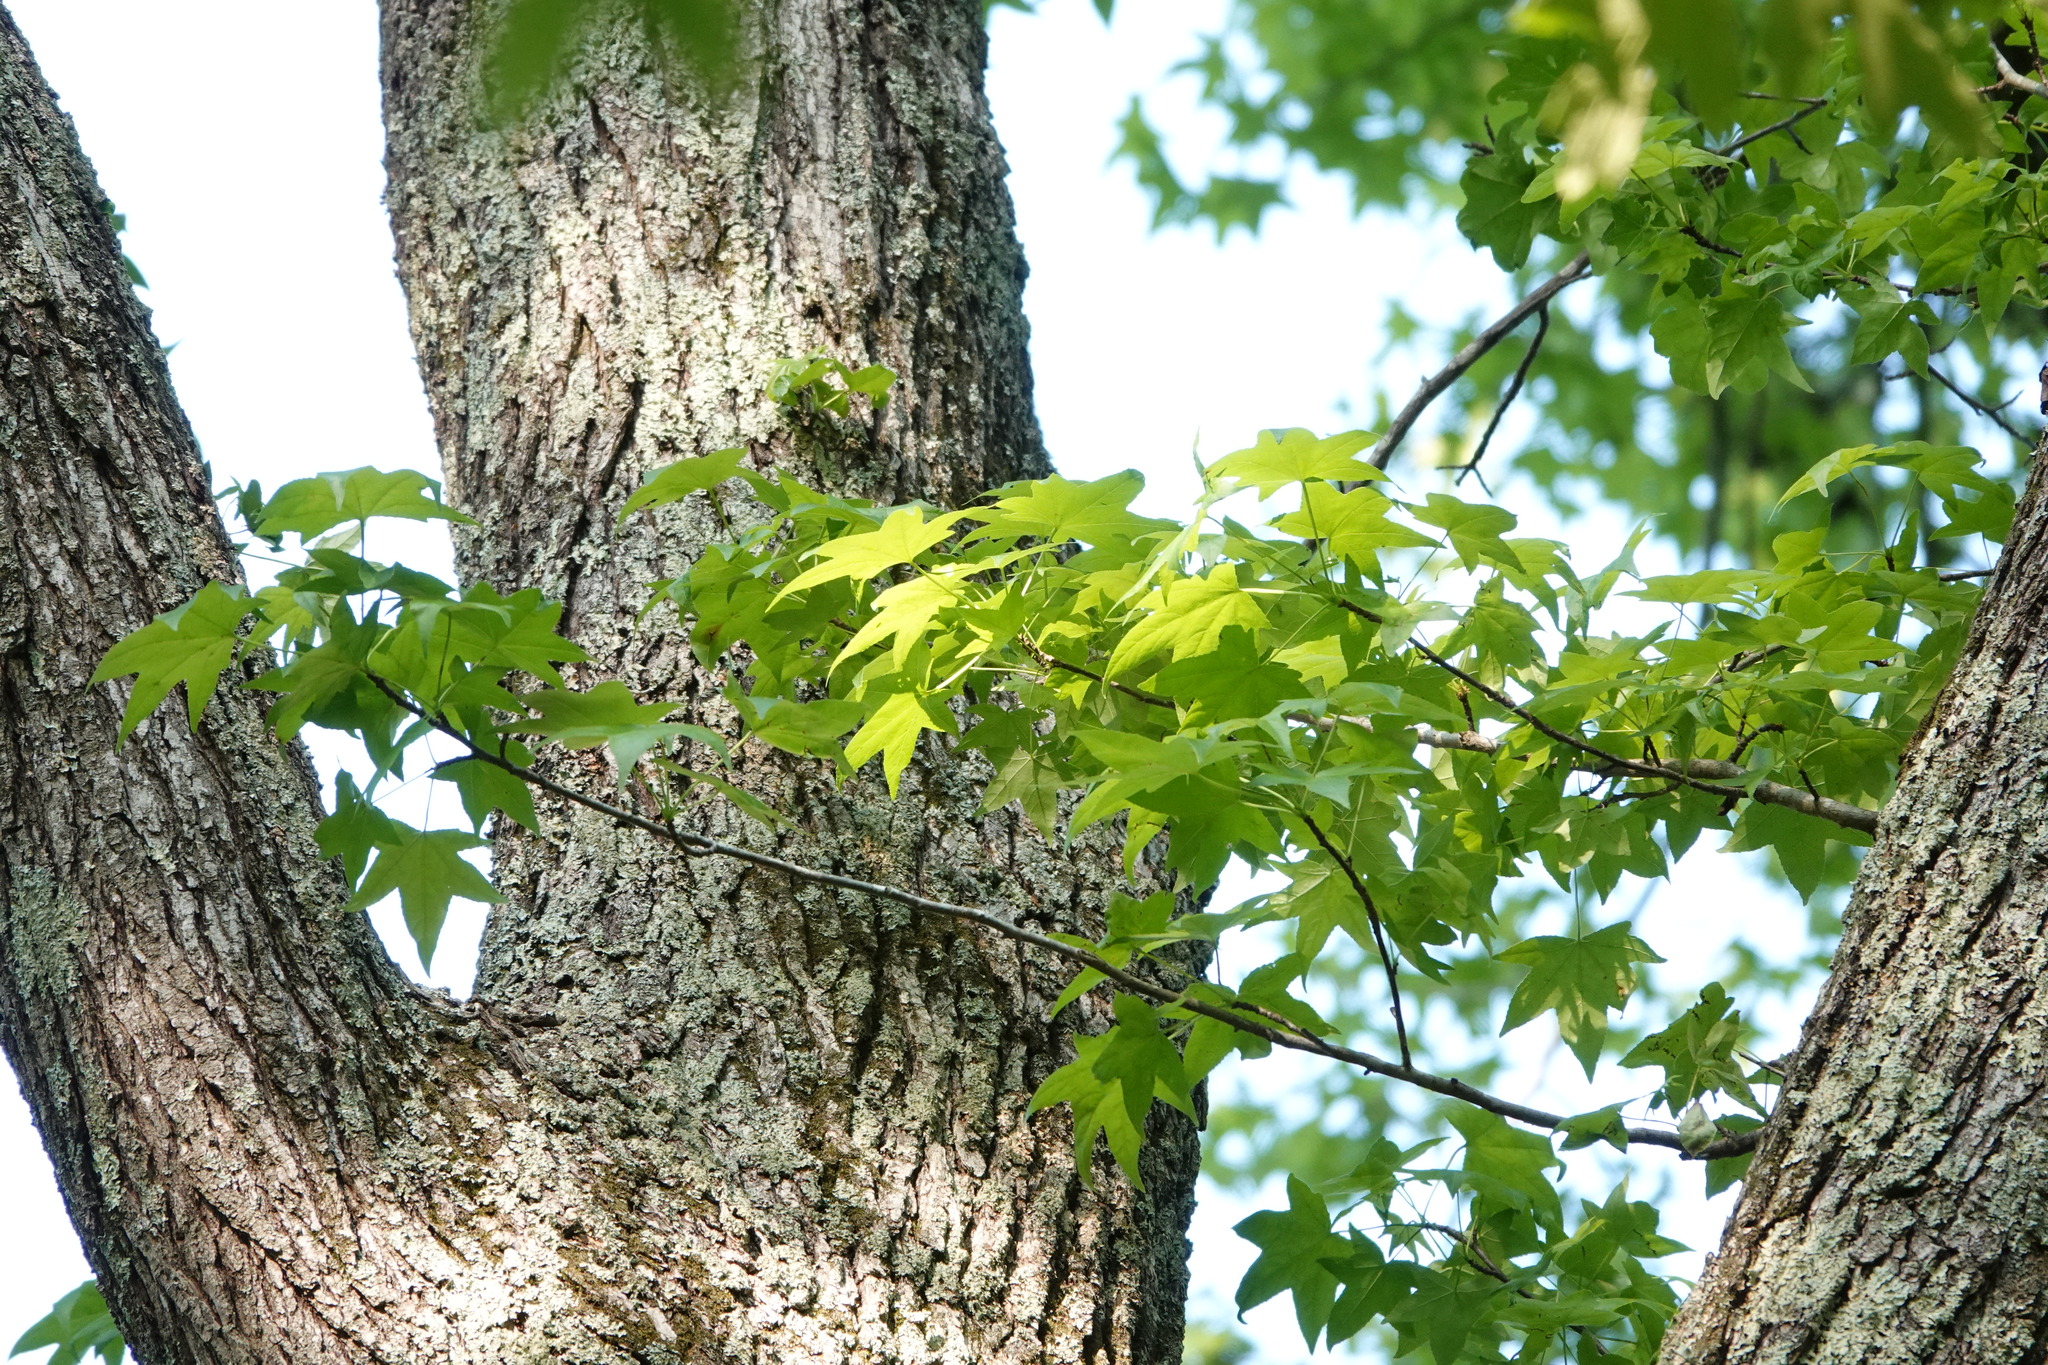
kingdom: Plantae
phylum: Tracheophyta
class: Magnoliopsida
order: Saxifragales
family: Altingiaceae
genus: Liquidambar
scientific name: Liquidambar styraciflua
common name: Sweet gum
